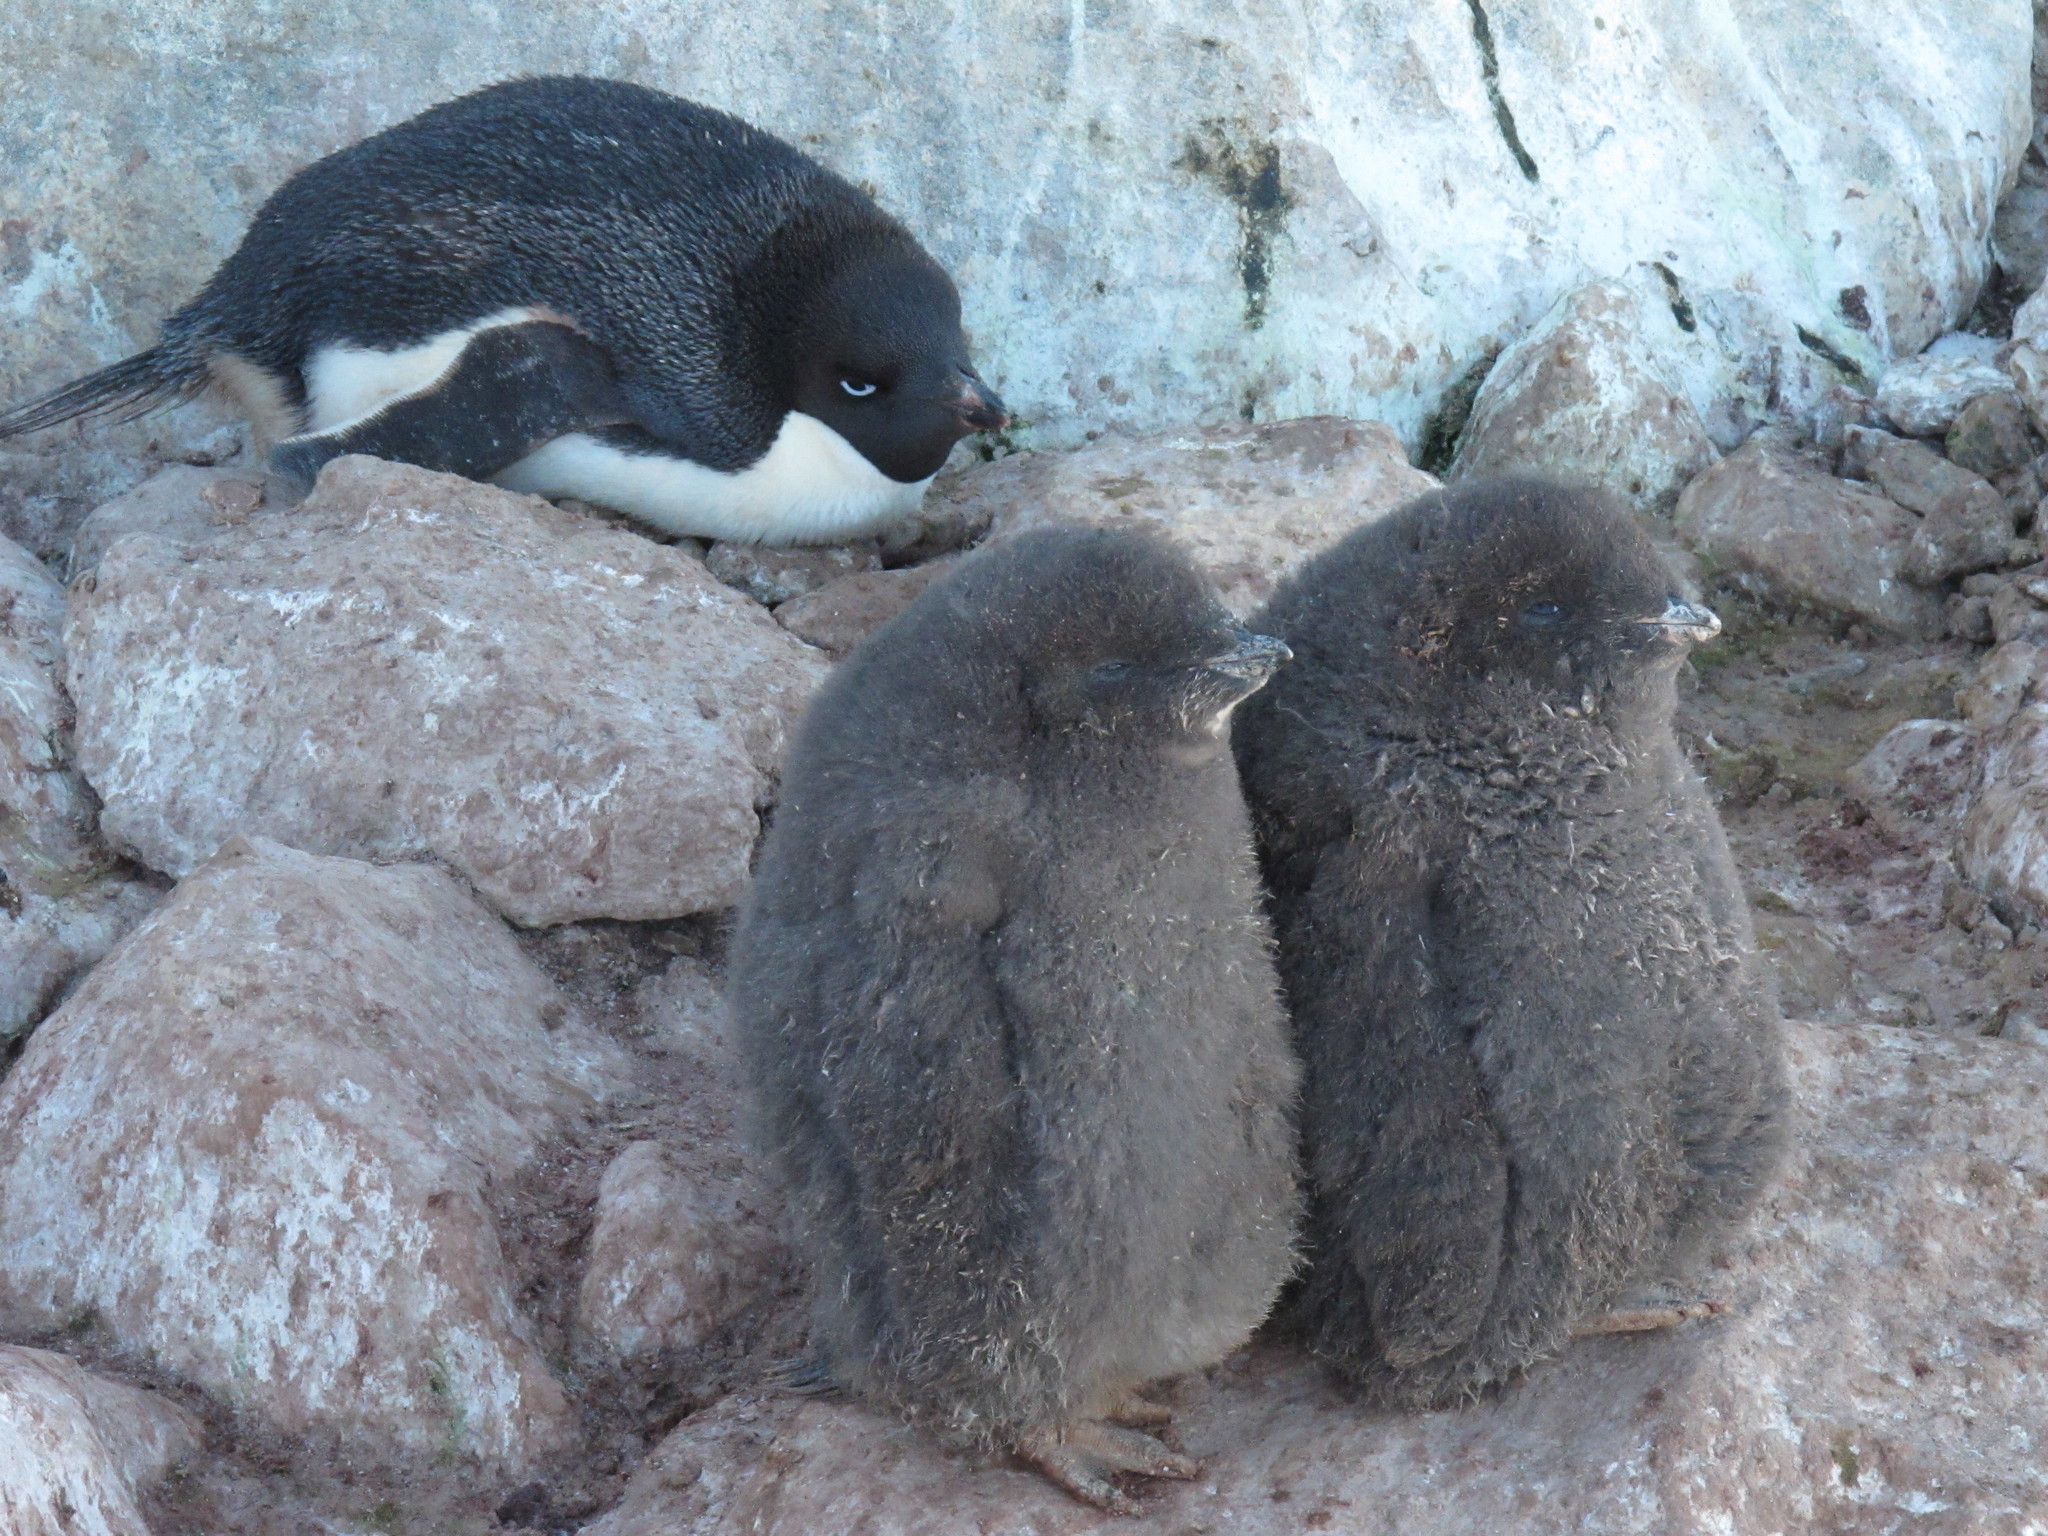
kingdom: Animalia
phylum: Chordata
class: Aves
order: Sphenisciformes
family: Spheniscidae
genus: Pygoscelis
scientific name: Pygoscelis adeliae
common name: Adelie penguin
